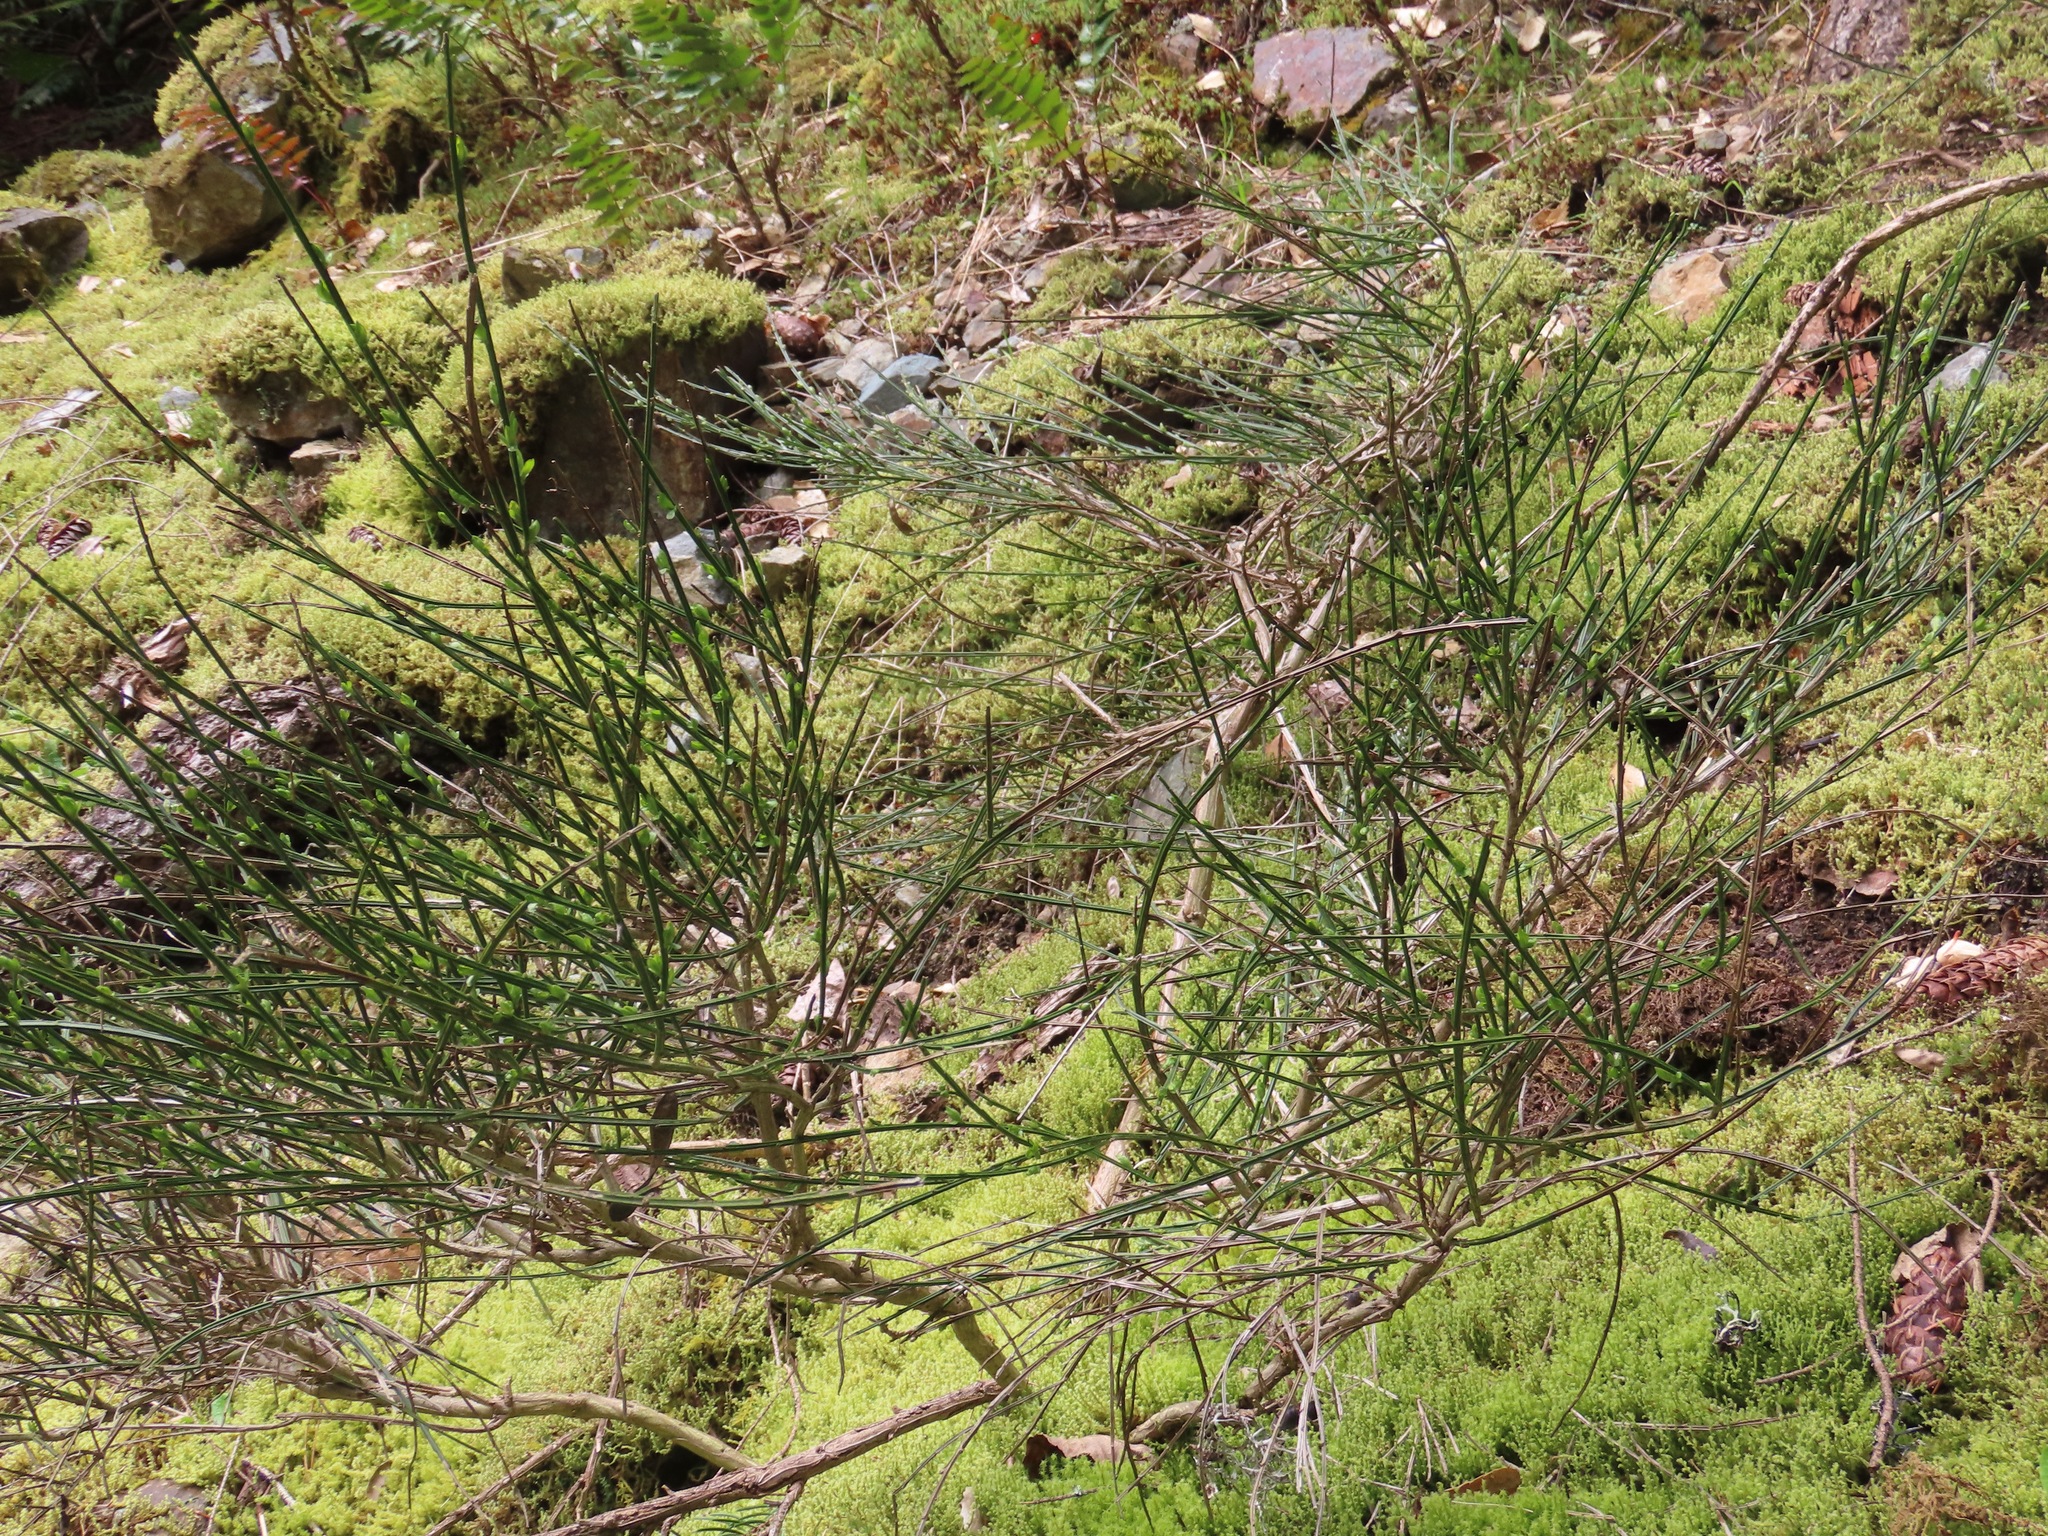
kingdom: Plantae
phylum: Tracheophyta
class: Magnoliopsida
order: Fabales
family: Fabaceae
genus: Cytisus
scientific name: Cytisus scoparius
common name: Scotch broom
